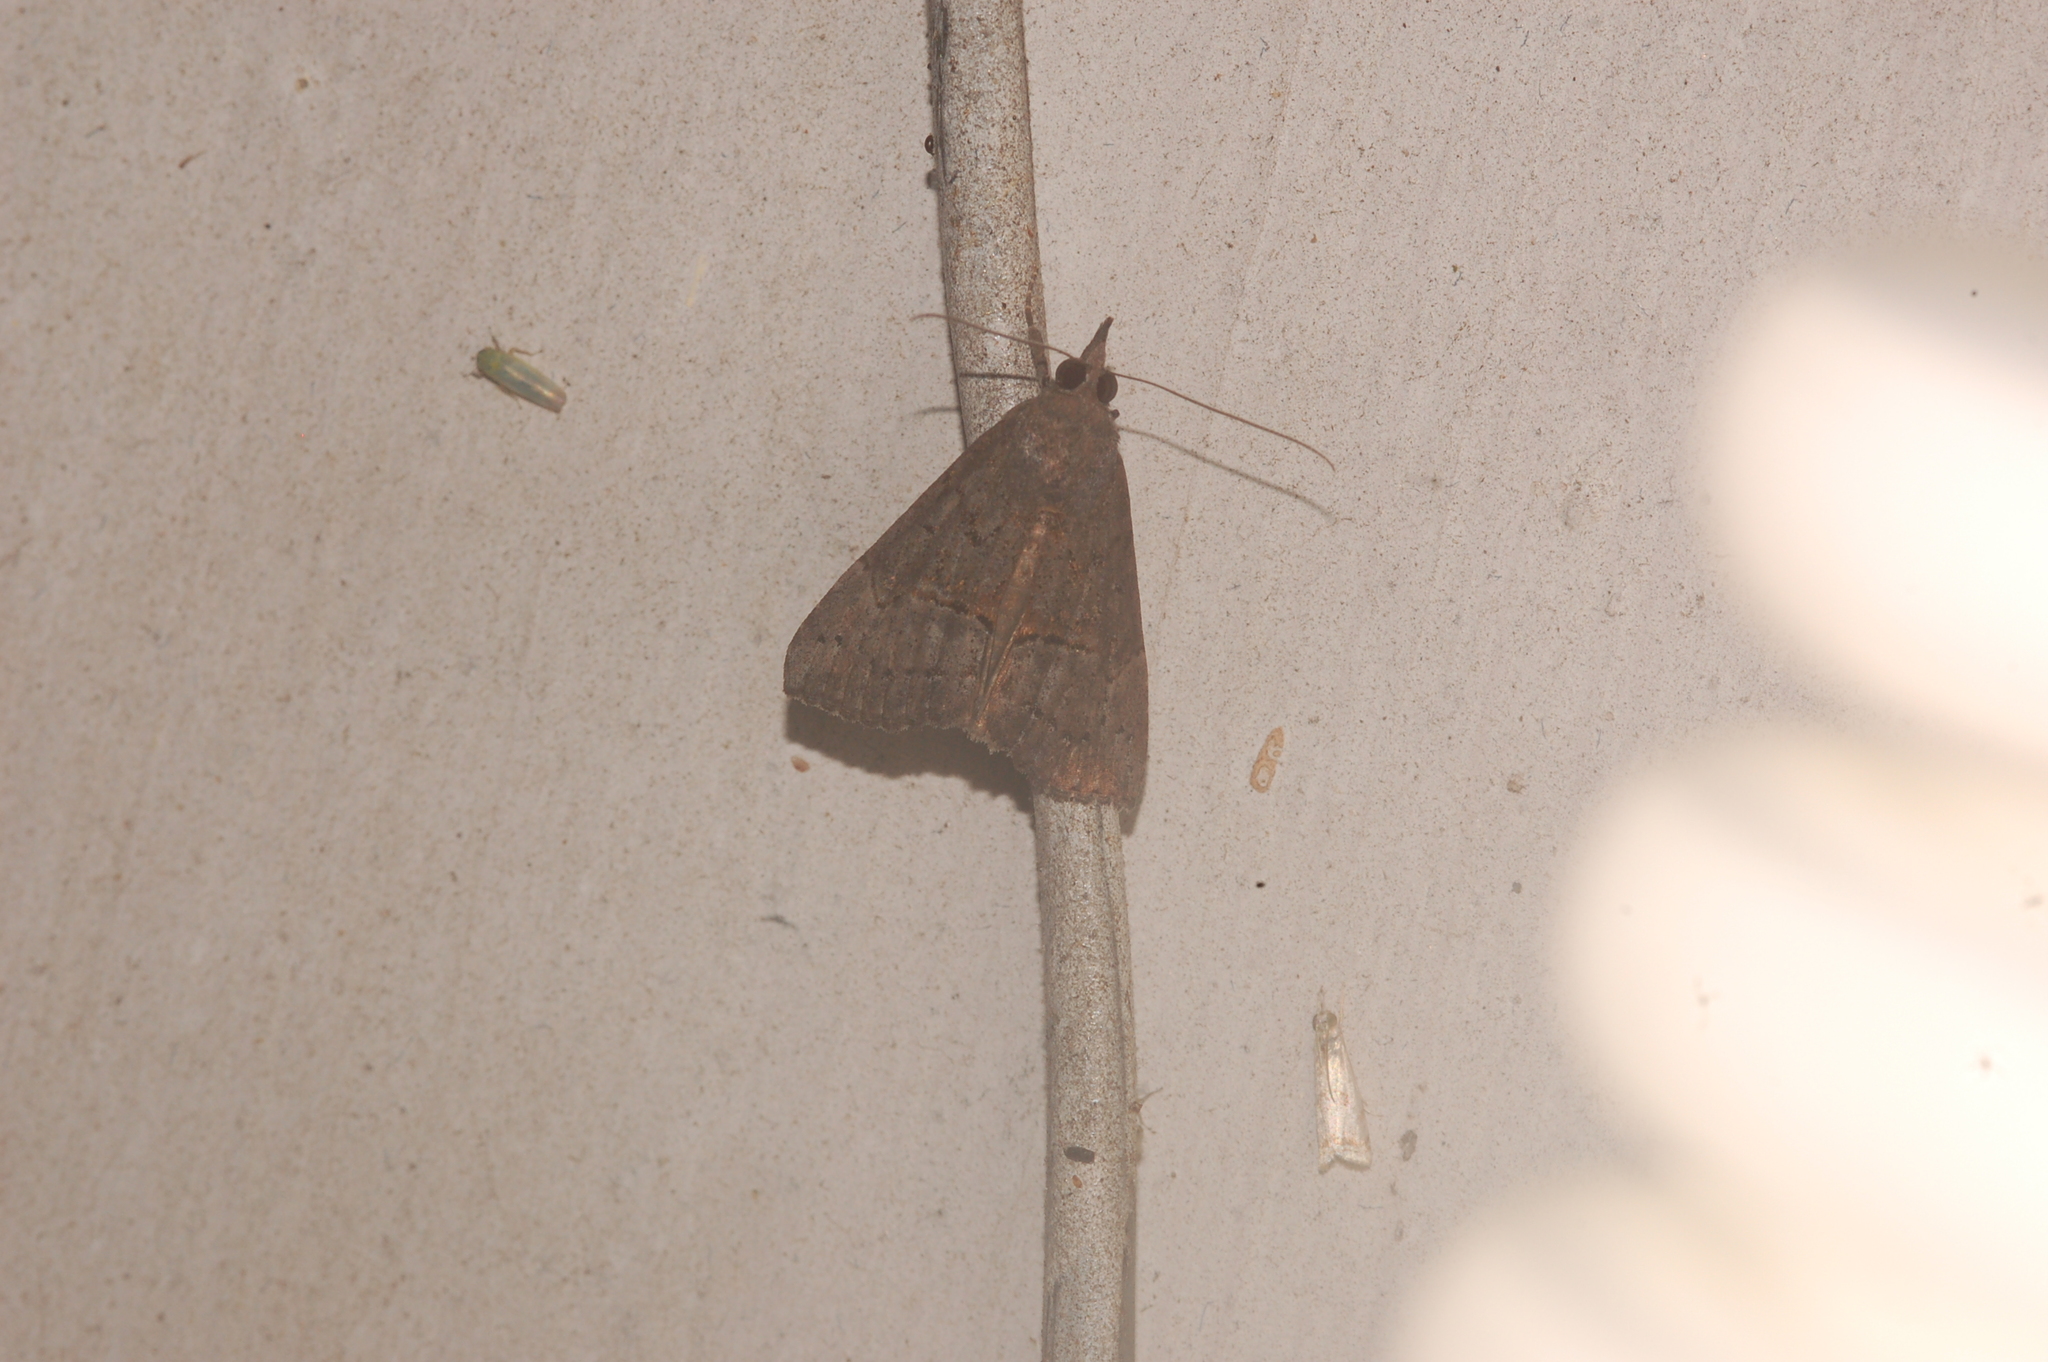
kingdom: Animalia
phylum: Arthropoda
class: Insecta
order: Lepidoptera
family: Erebidae
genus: Hypena
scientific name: Hypena scabra
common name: Green cloverworm
